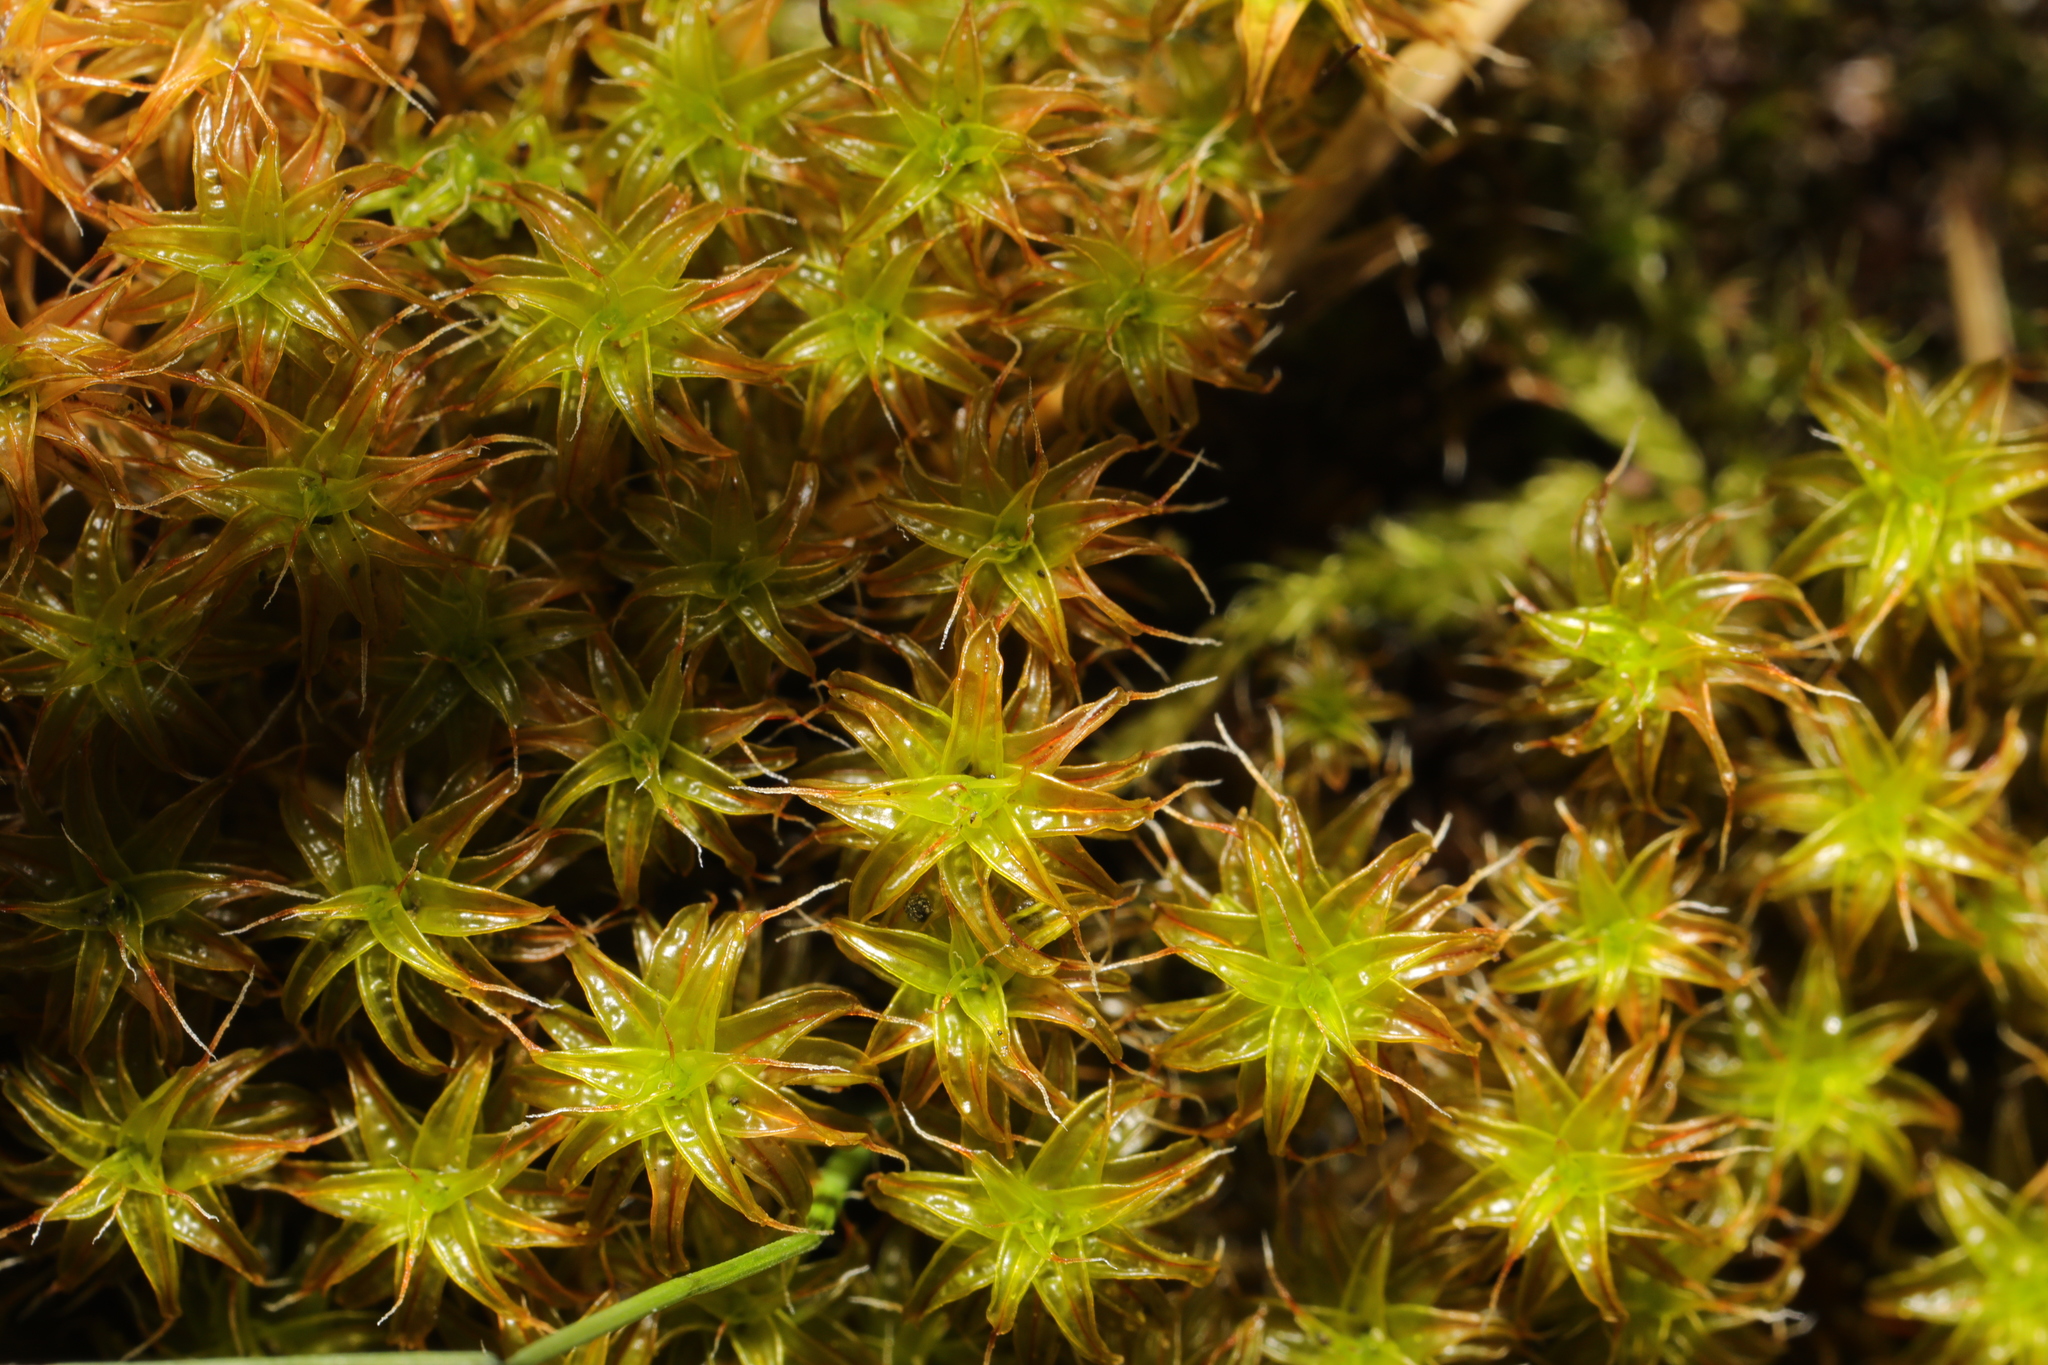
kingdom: Plantae
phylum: Bryophyta
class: Bryopsida
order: Pottiales
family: Pottiaceae
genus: Syntrichia
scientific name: Syntrichia ruralis
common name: Sidewalk screw moss
